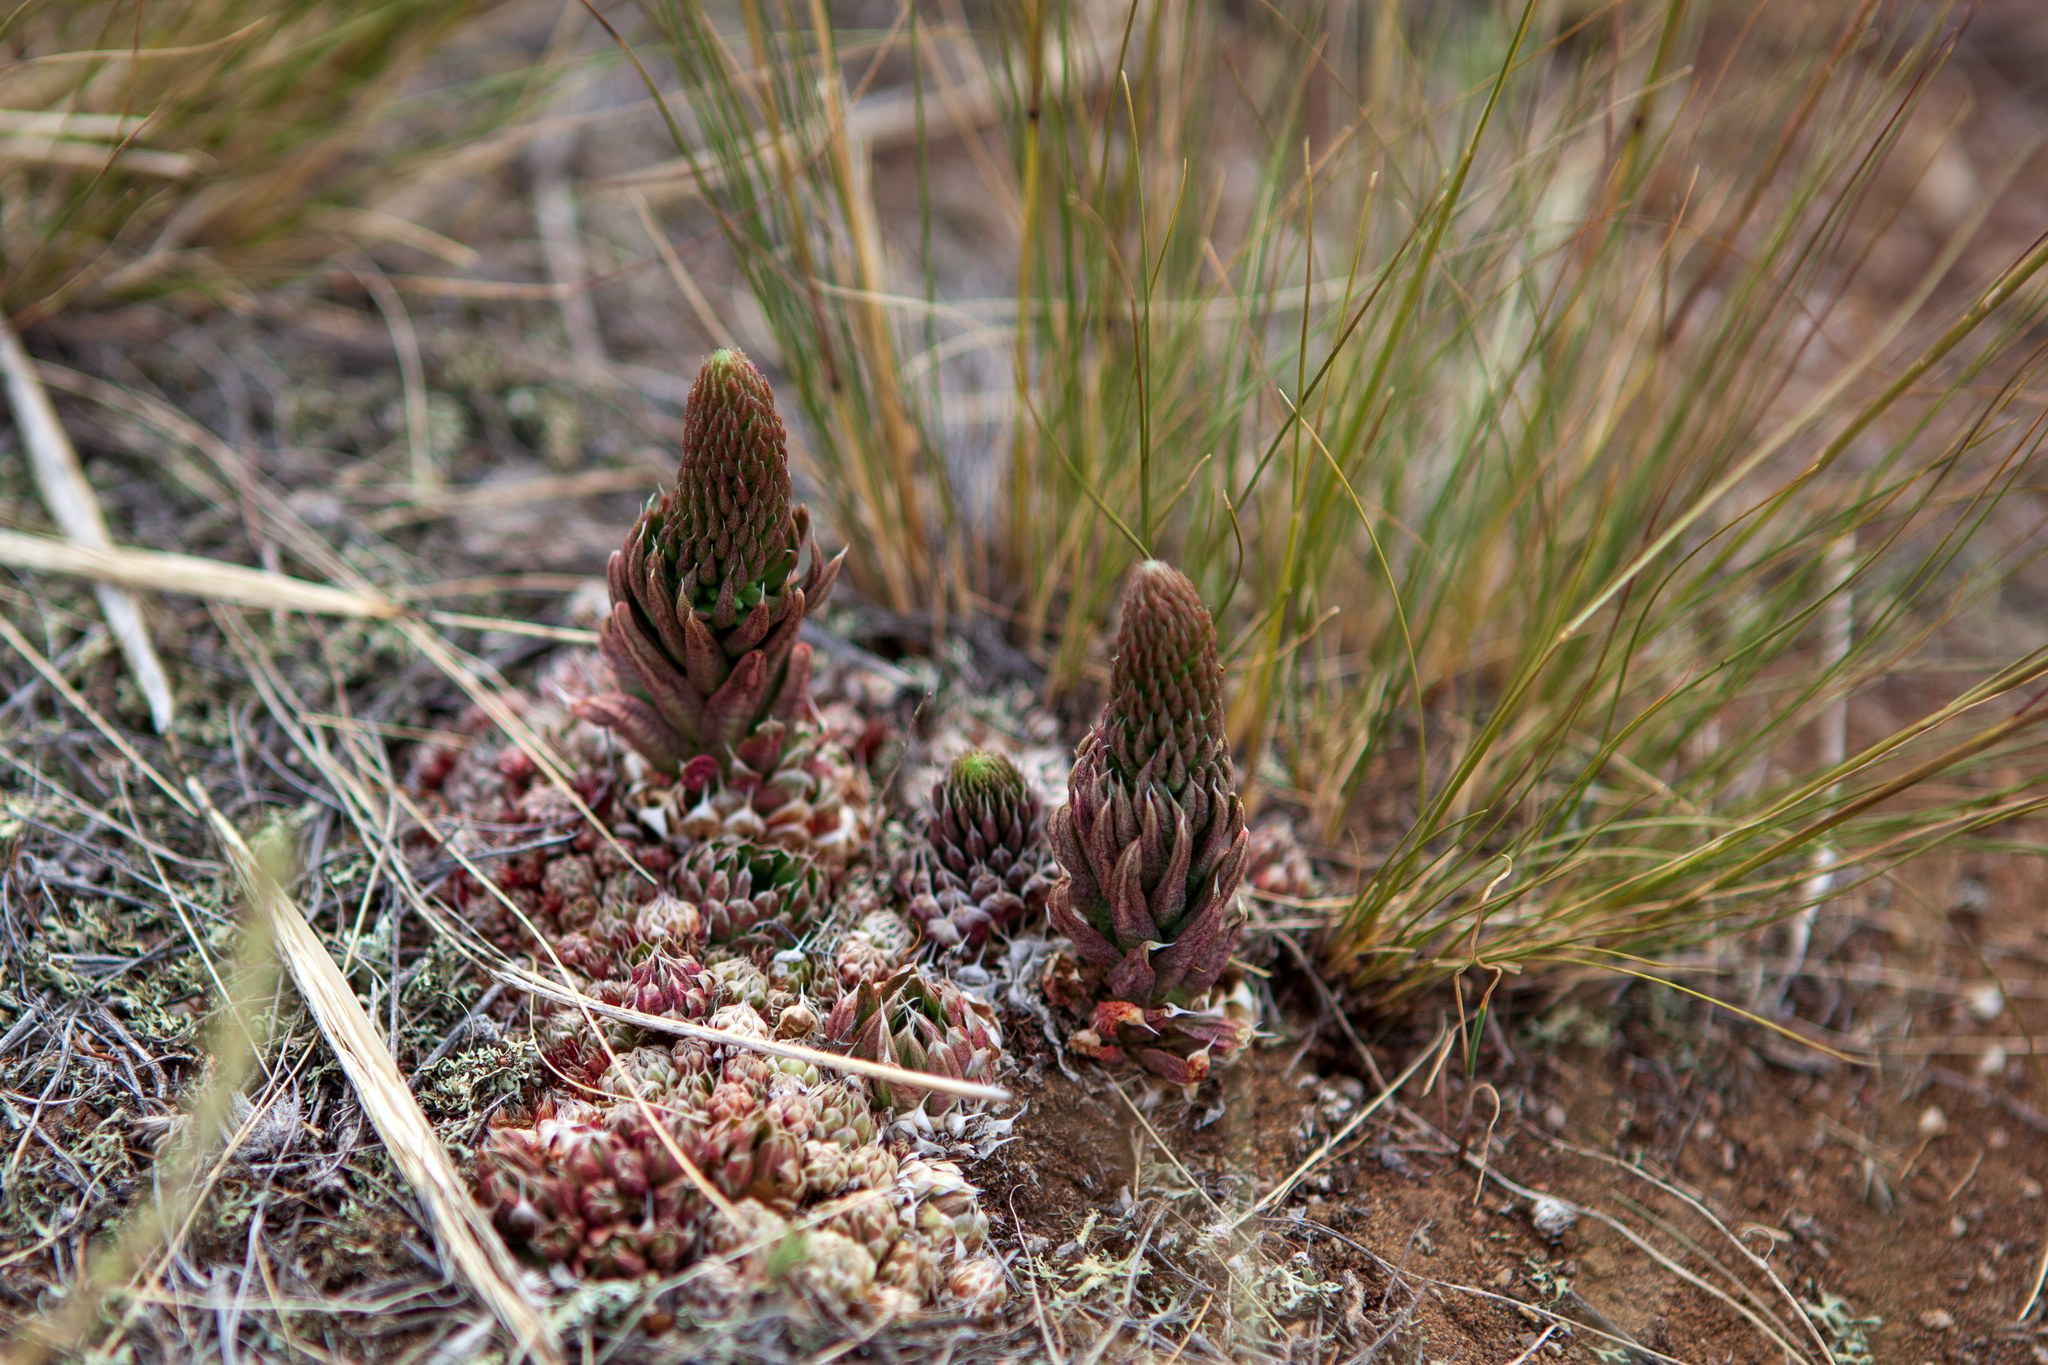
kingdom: Plantae
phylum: Tracheophyta
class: Magnoliopsida
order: Saxifragales
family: Crassulaceae
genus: Orostachys
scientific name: Orostachys spinosa
